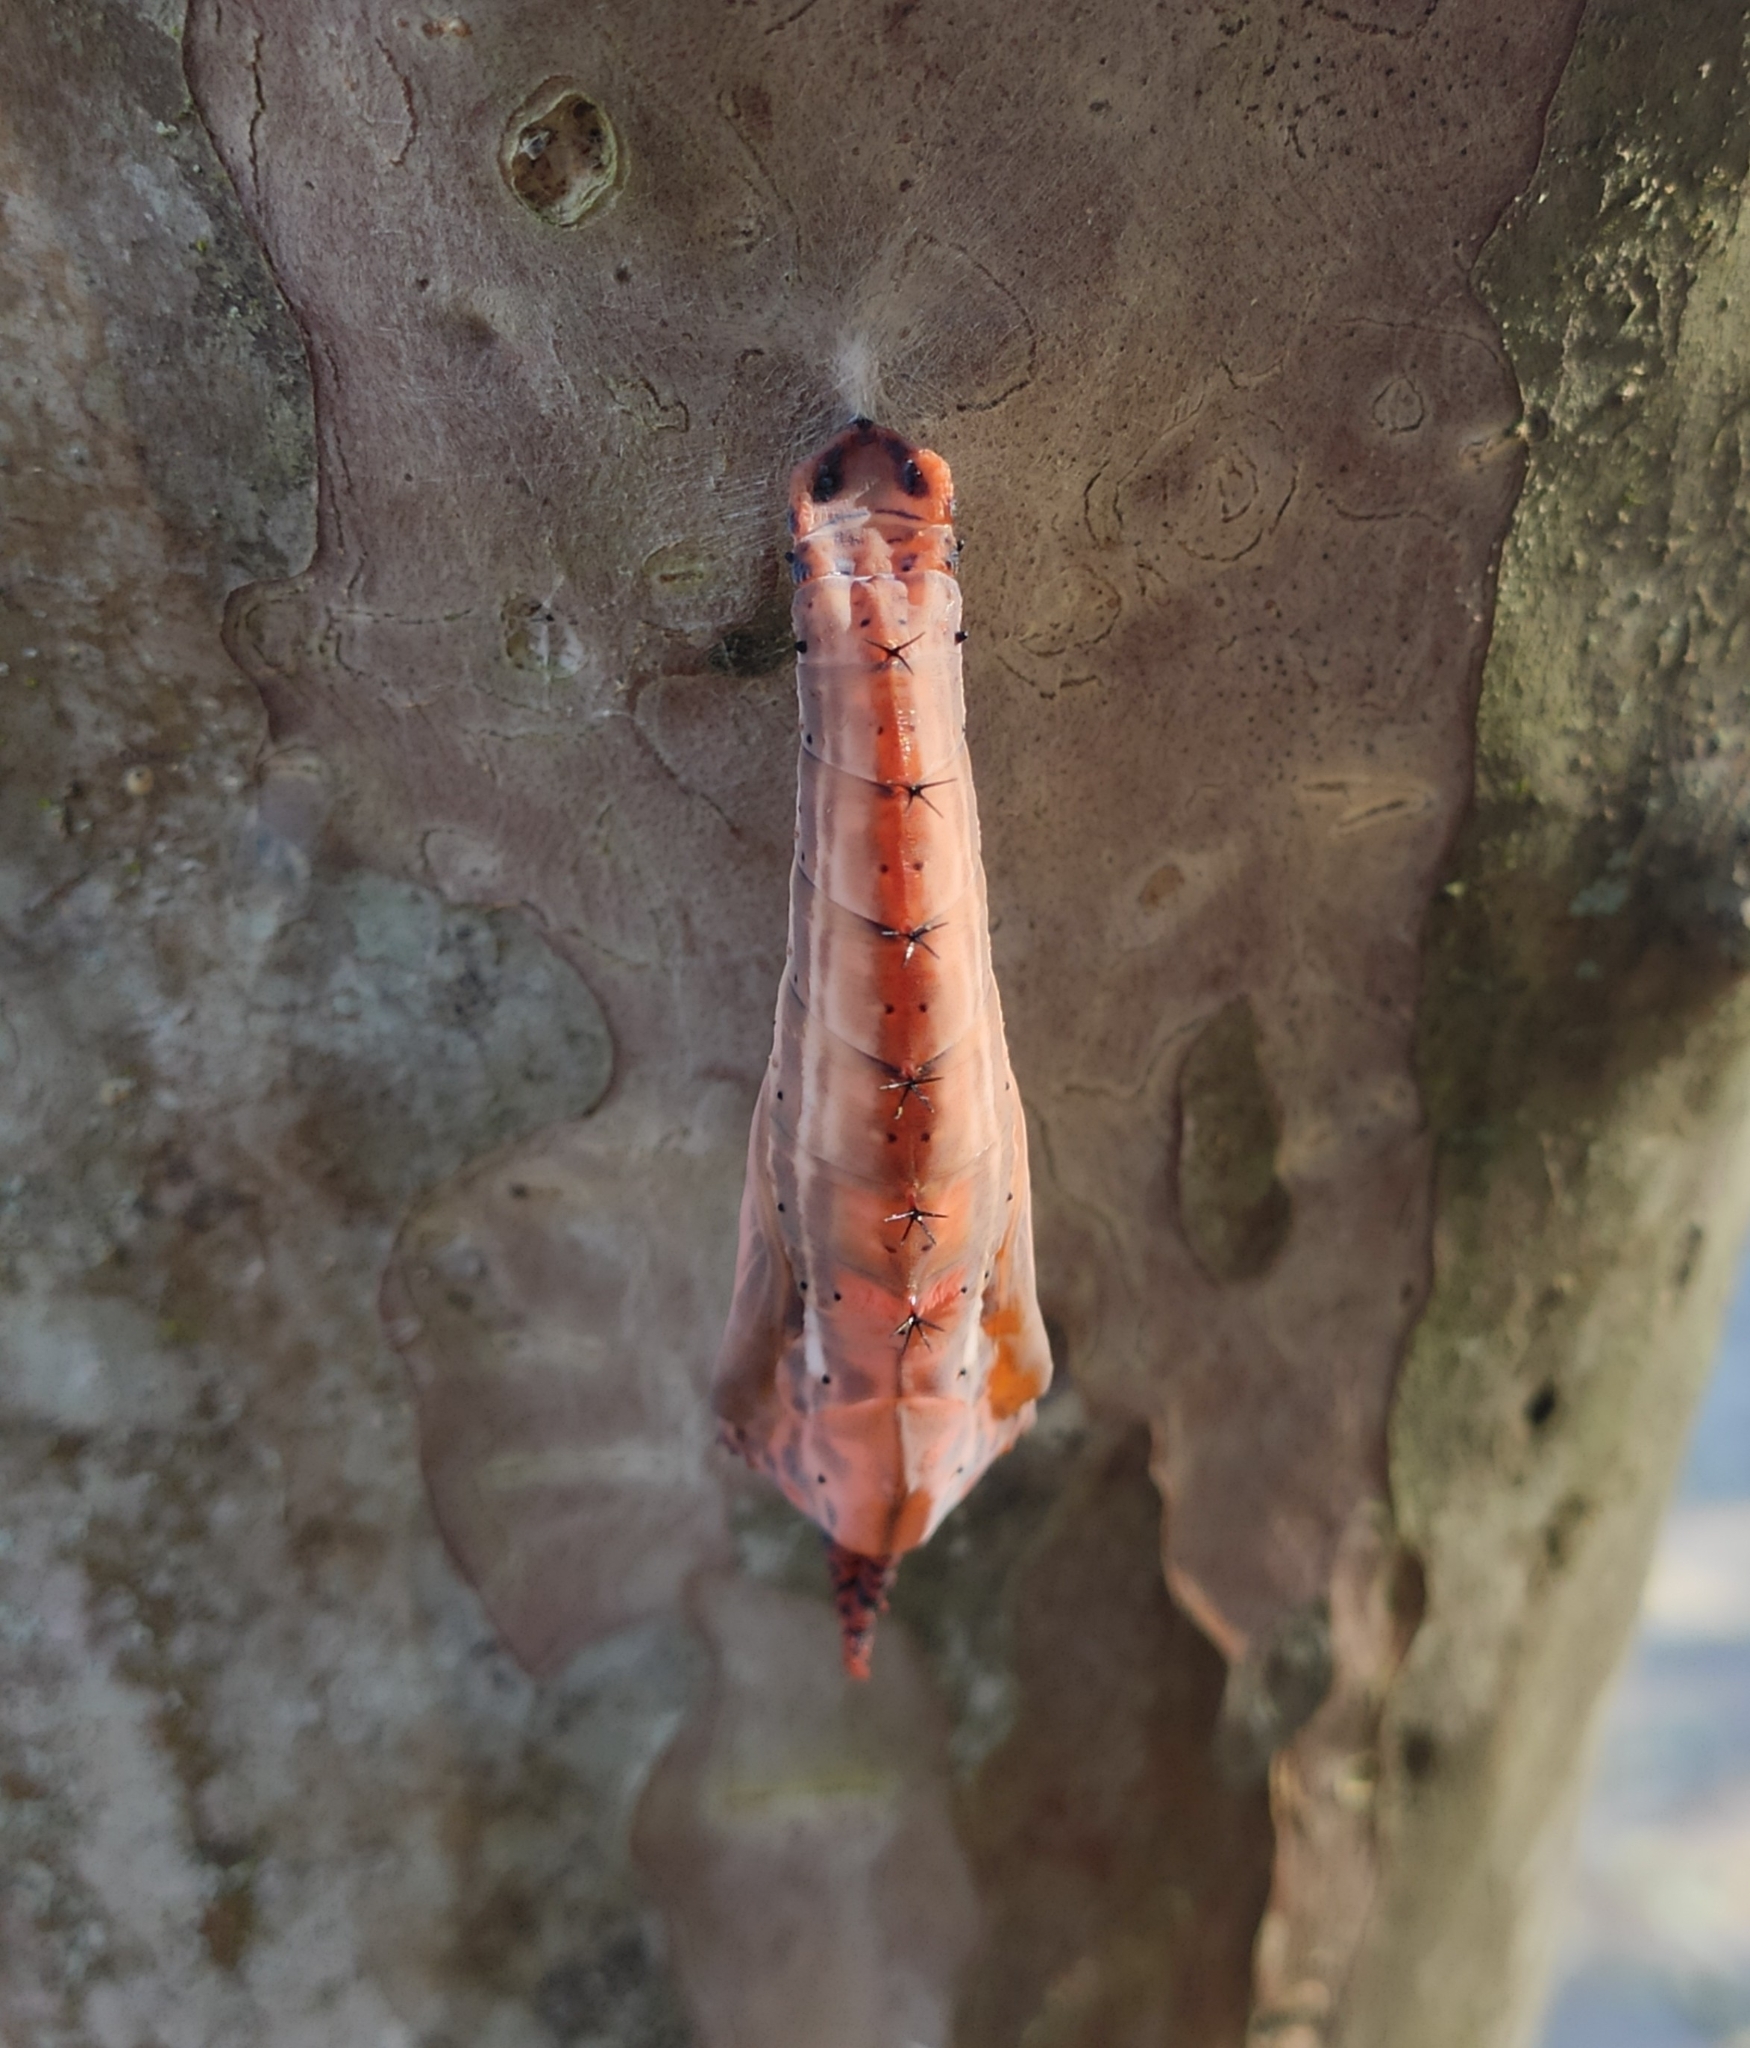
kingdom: Animalia
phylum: Arthropoda
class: Insecta
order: Lepidoptera
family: Nymphalidae
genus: Historis
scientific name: Historis odius
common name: Orion cecropian
